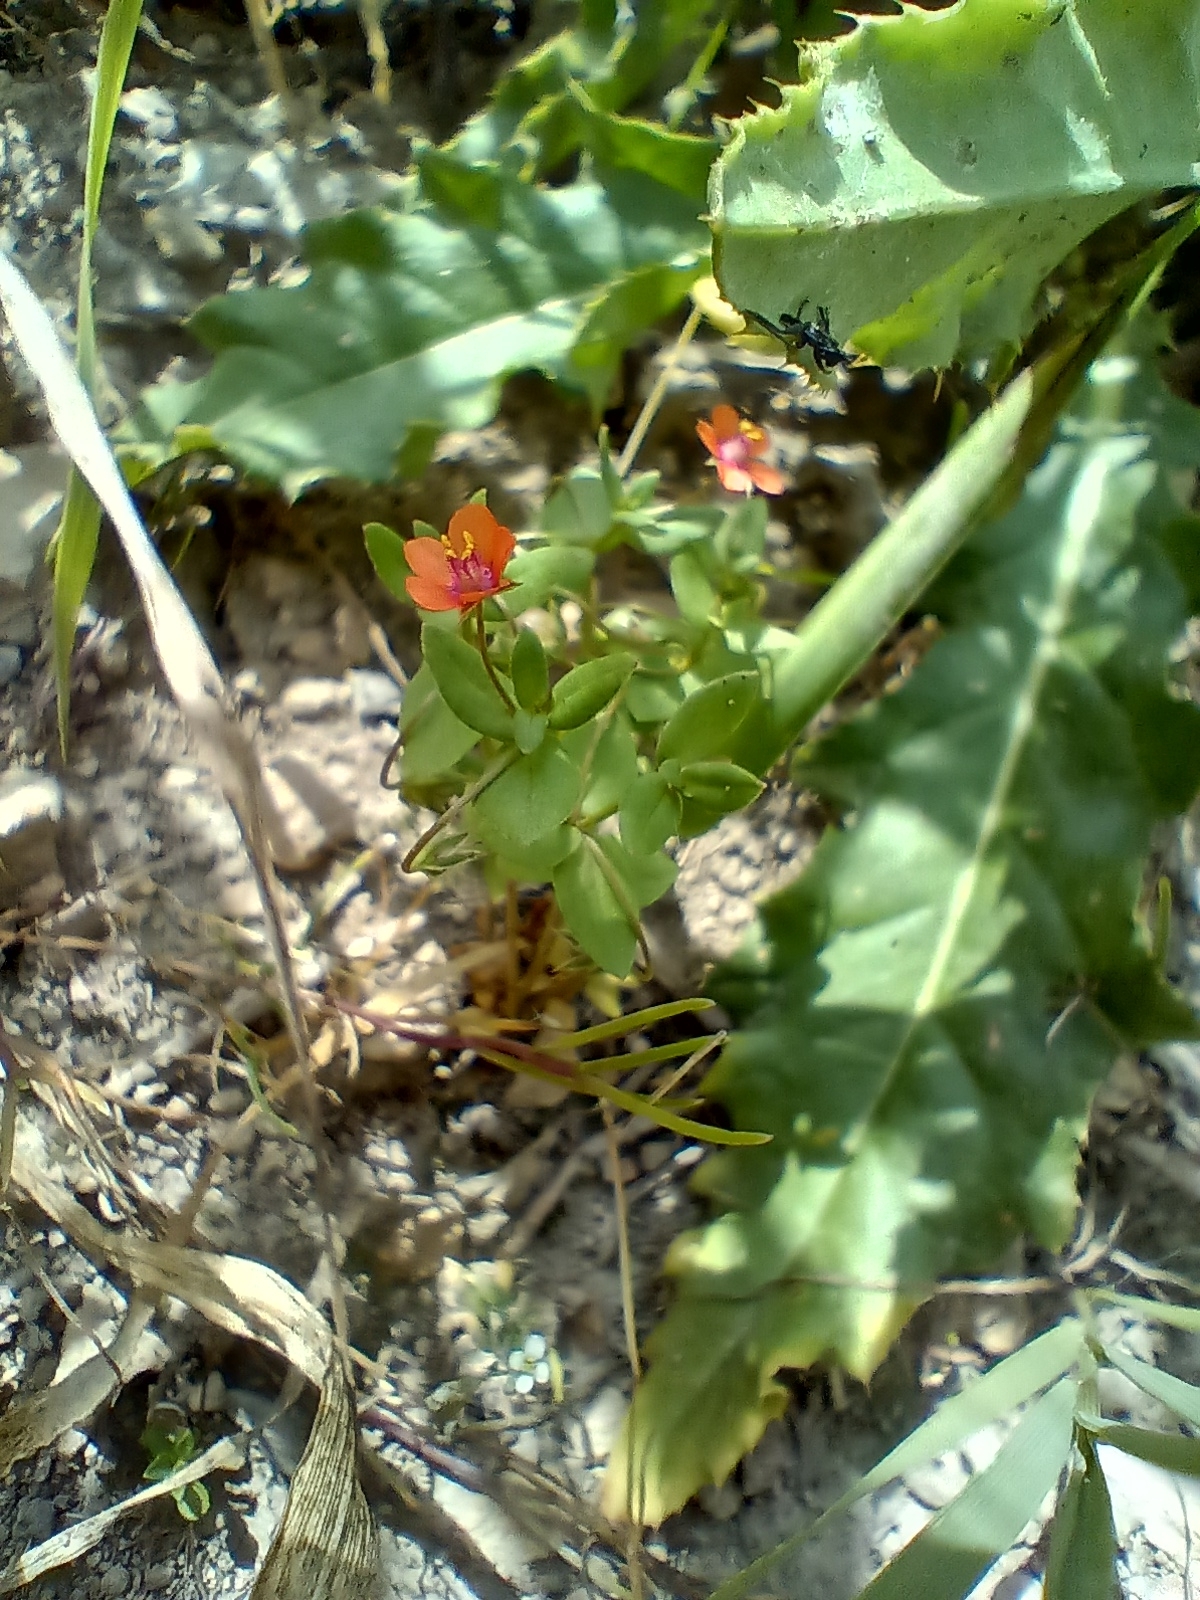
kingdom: Plantae
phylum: Tracheophyta
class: Magnoliopsida
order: Ericales
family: Primulaceae
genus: Lysimachia
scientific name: Lysimachia arvensis
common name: Scarlet pimpernel
